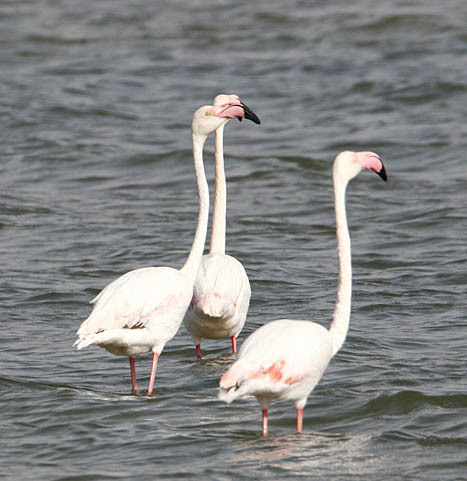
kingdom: Animalia
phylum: Chordata
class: Aves
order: Phoenicopteriformes
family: Phoenicopteridae
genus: Phoenicopterus
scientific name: Phoenicopterus roseus
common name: Greater flamingo
